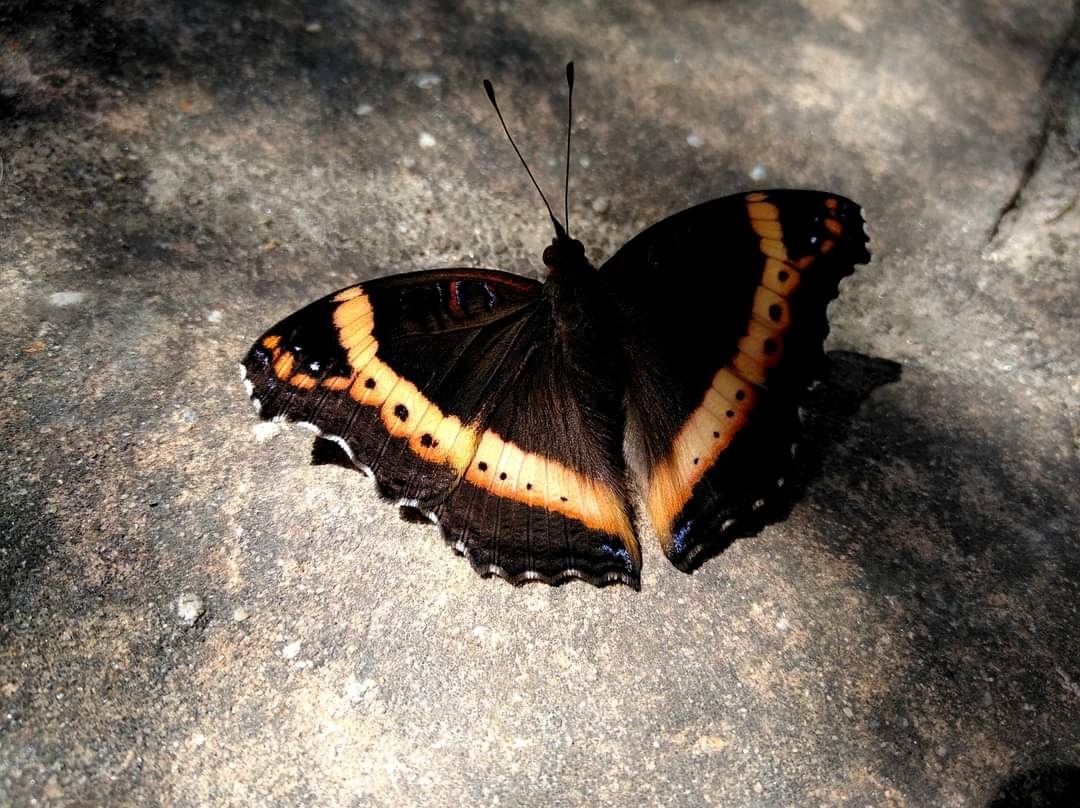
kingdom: Animalia
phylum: Arthropoda
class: Insecta
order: Lepidoptera
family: Nymphalidae
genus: Junonia
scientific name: Junonia archesia
